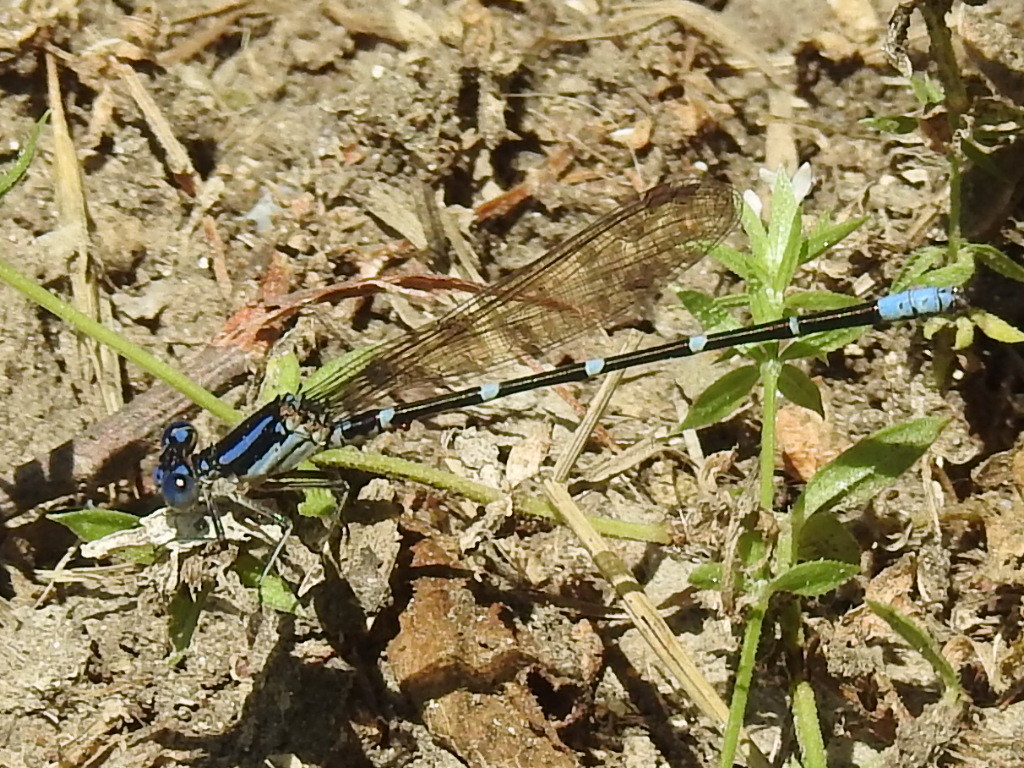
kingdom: Animalia
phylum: Arthropoda
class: Insecta
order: Odonata
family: Coenagrionidae
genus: Argia
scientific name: Argia sedula
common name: Blue-ringed dancer
